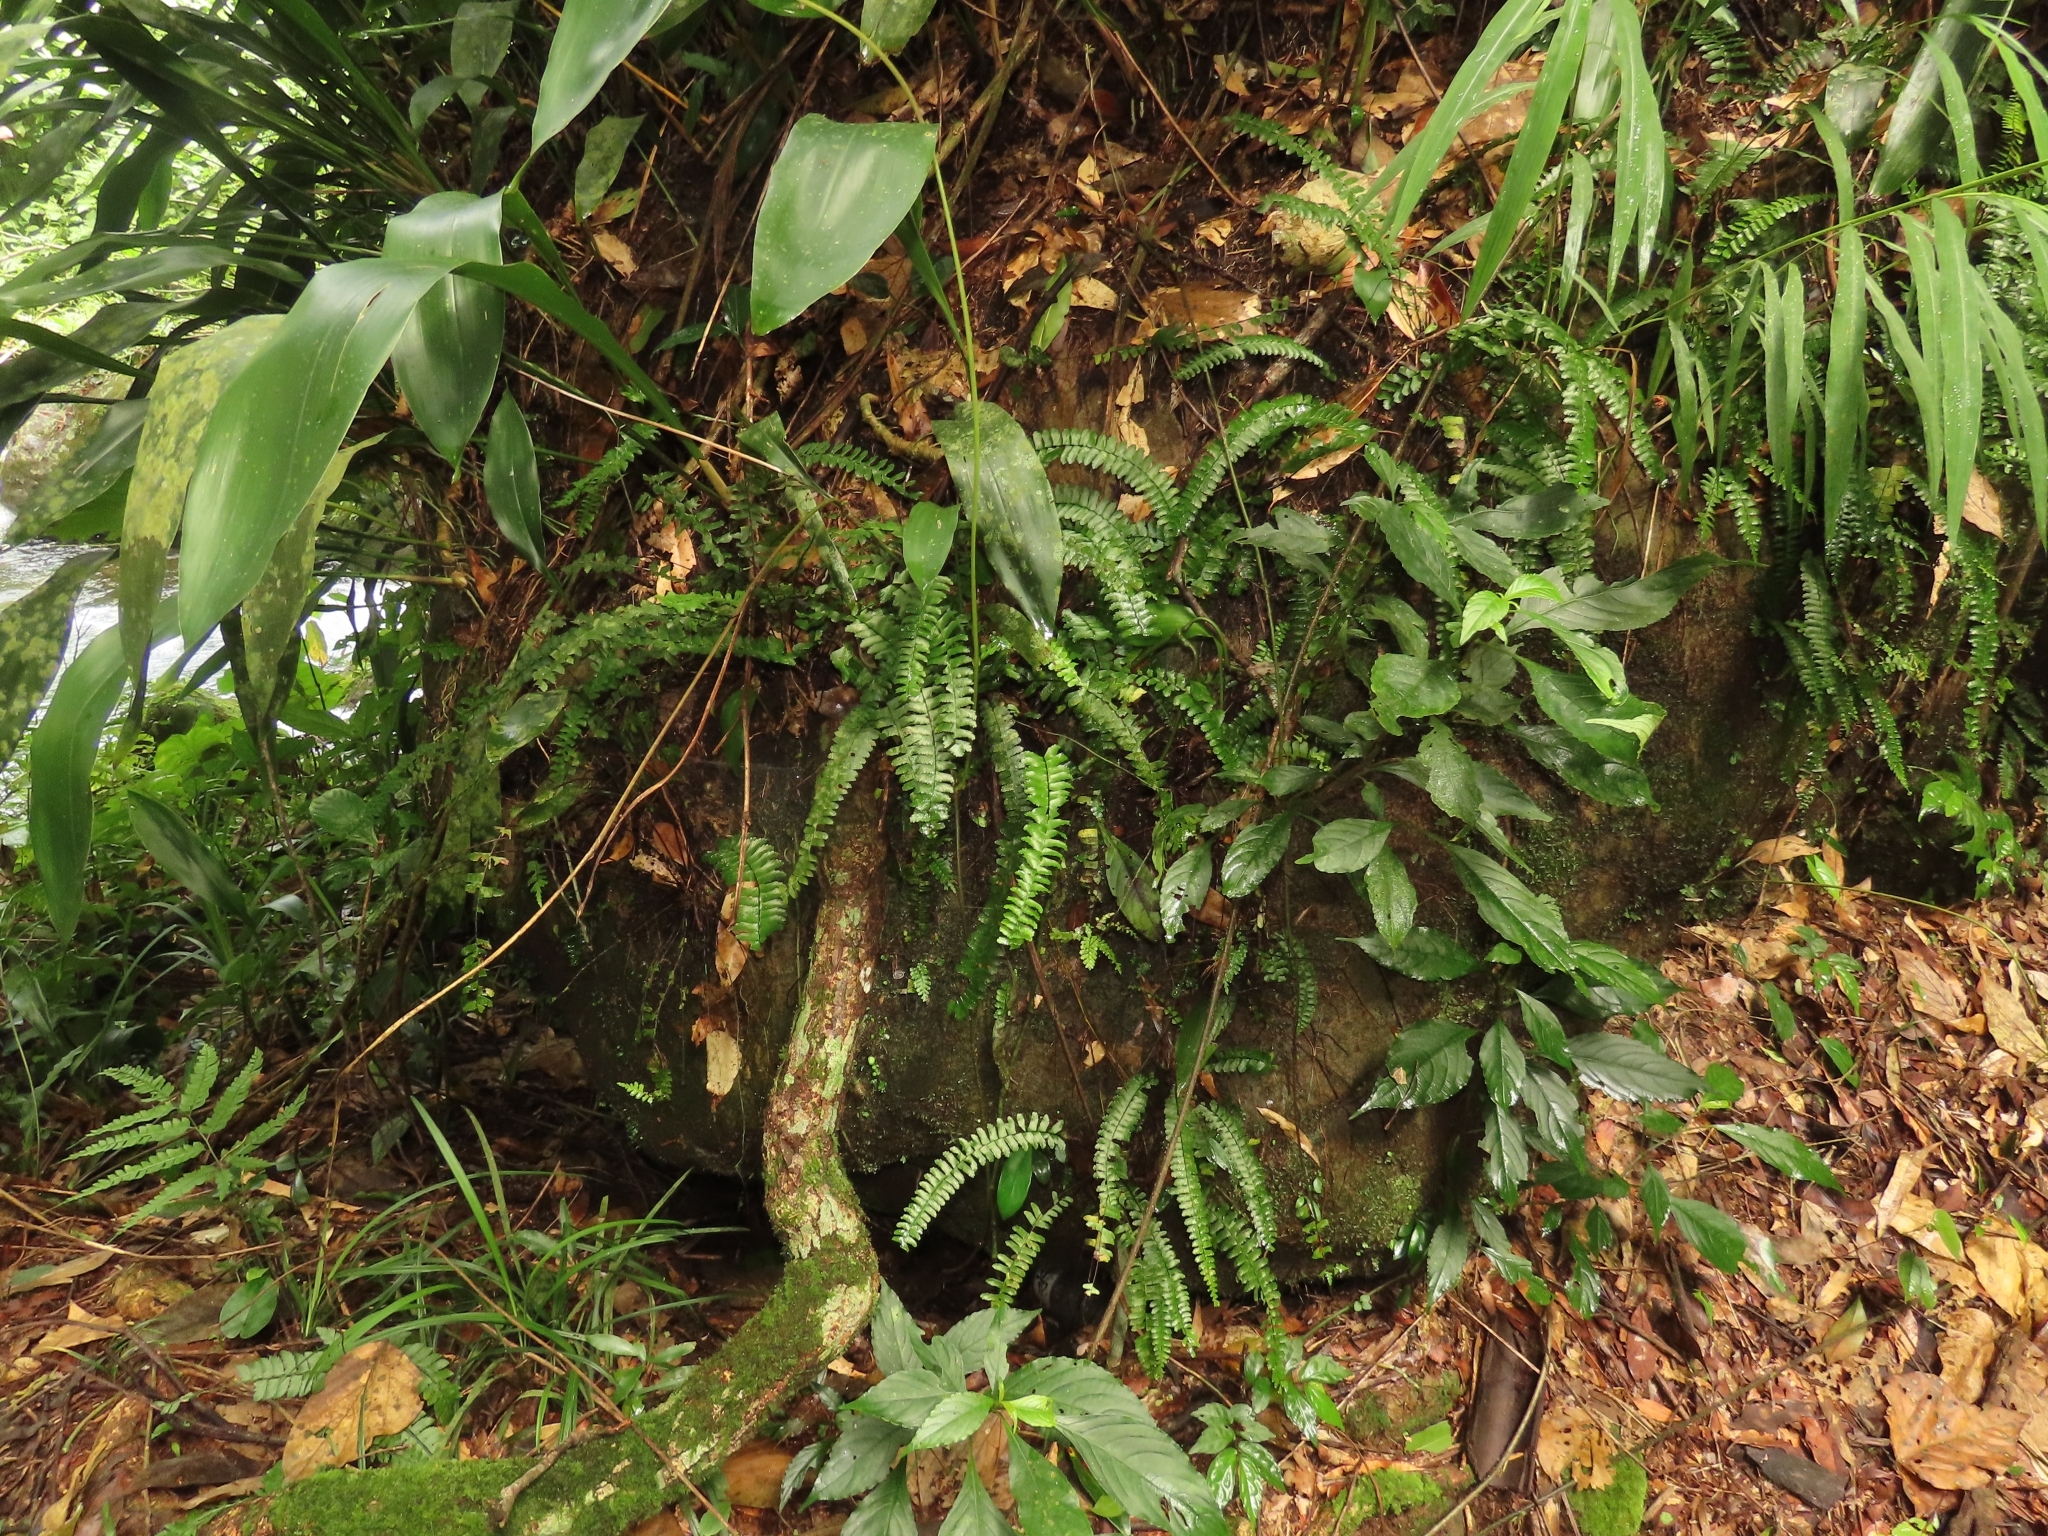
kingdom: Plantae
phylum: Tracheophyta
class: Polypodiopsida
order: Polypodiales
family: Aspleniaceae
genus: Asplenium
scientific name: Asplenium normale
